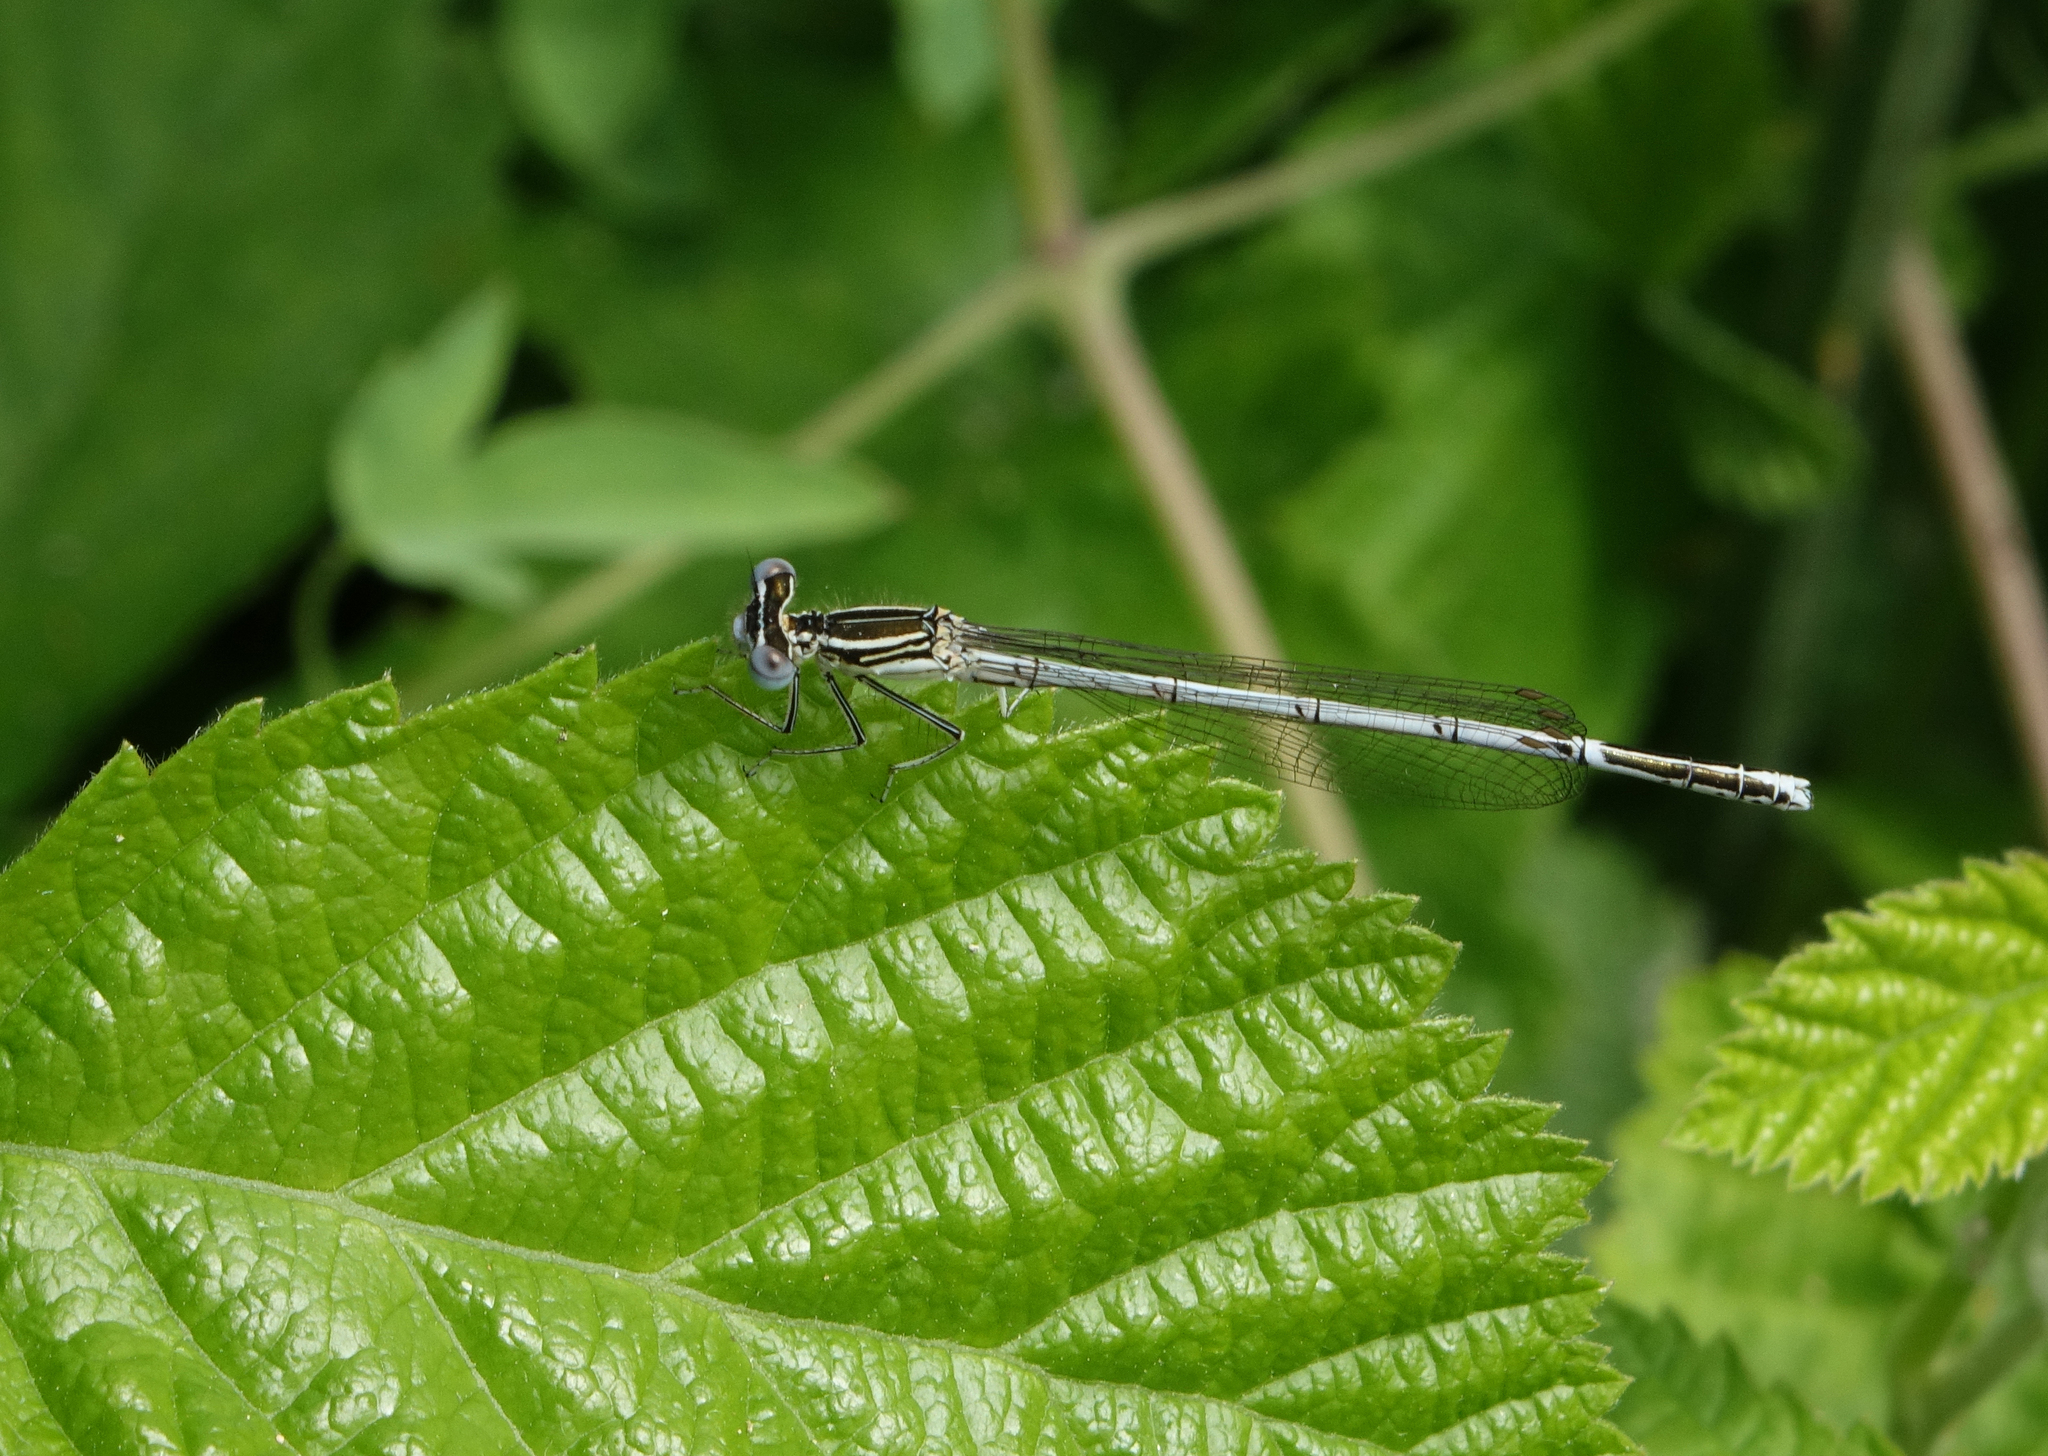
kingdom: Animalia
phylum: Arthropoda
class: Insecta
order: Odonata
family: Platycnemididae
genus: Platycnemis
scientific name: Platycnemis pennipes
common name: White-legged damselfly
